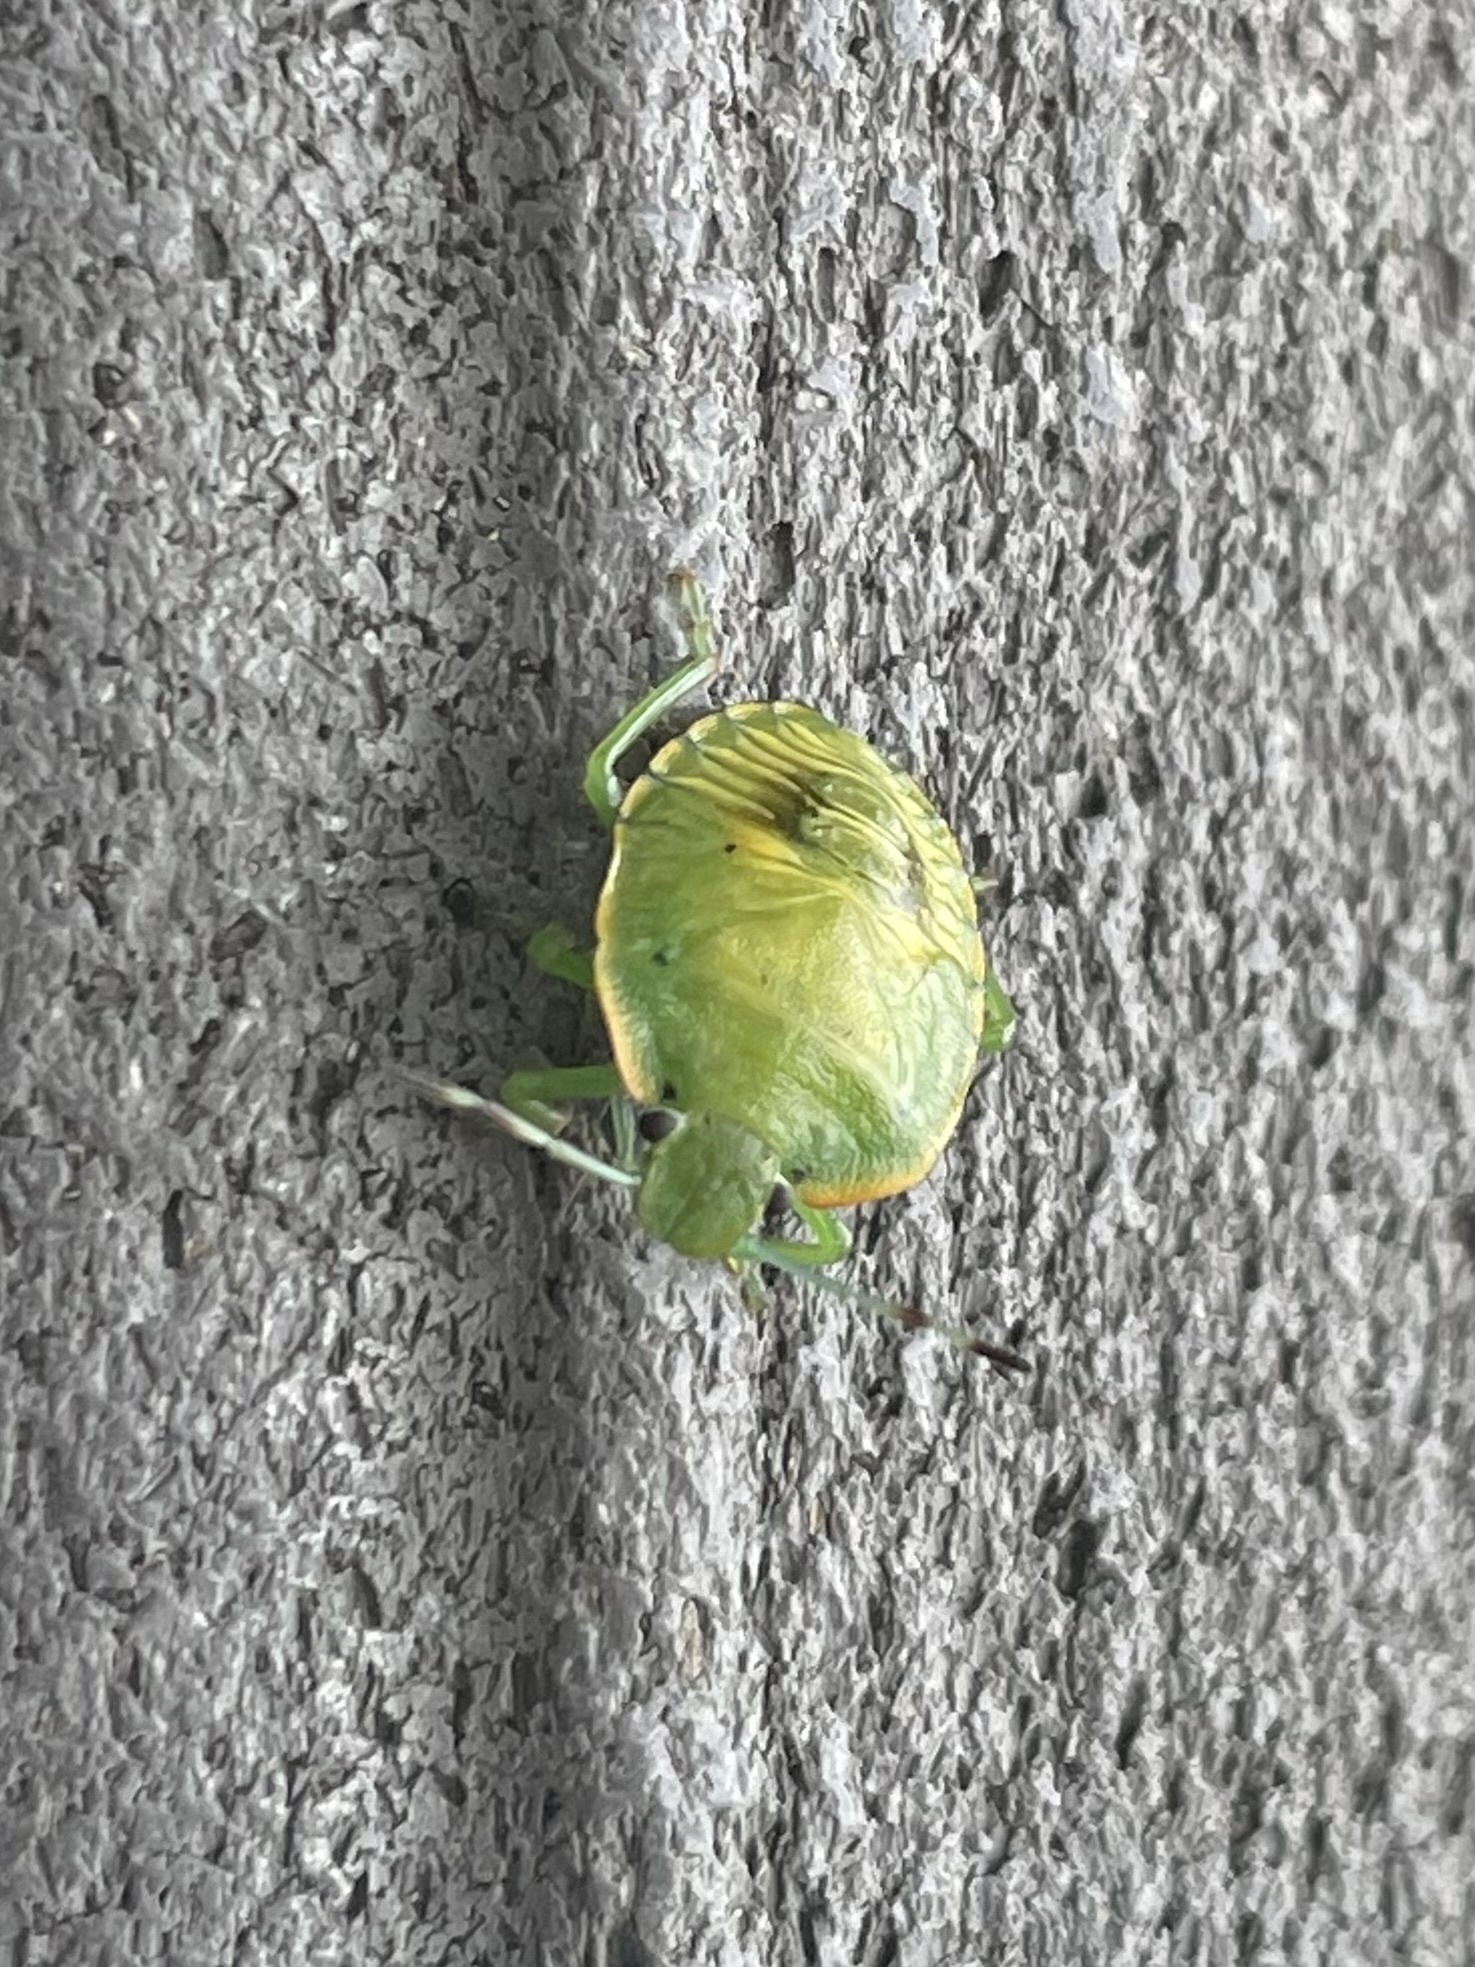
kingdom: Animalia
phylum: Arthropoda
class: Insecta
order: Hemiptera
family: Pentatomidae
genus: Chinavia
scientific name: Chinavia hilaris
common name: Green stink bug
